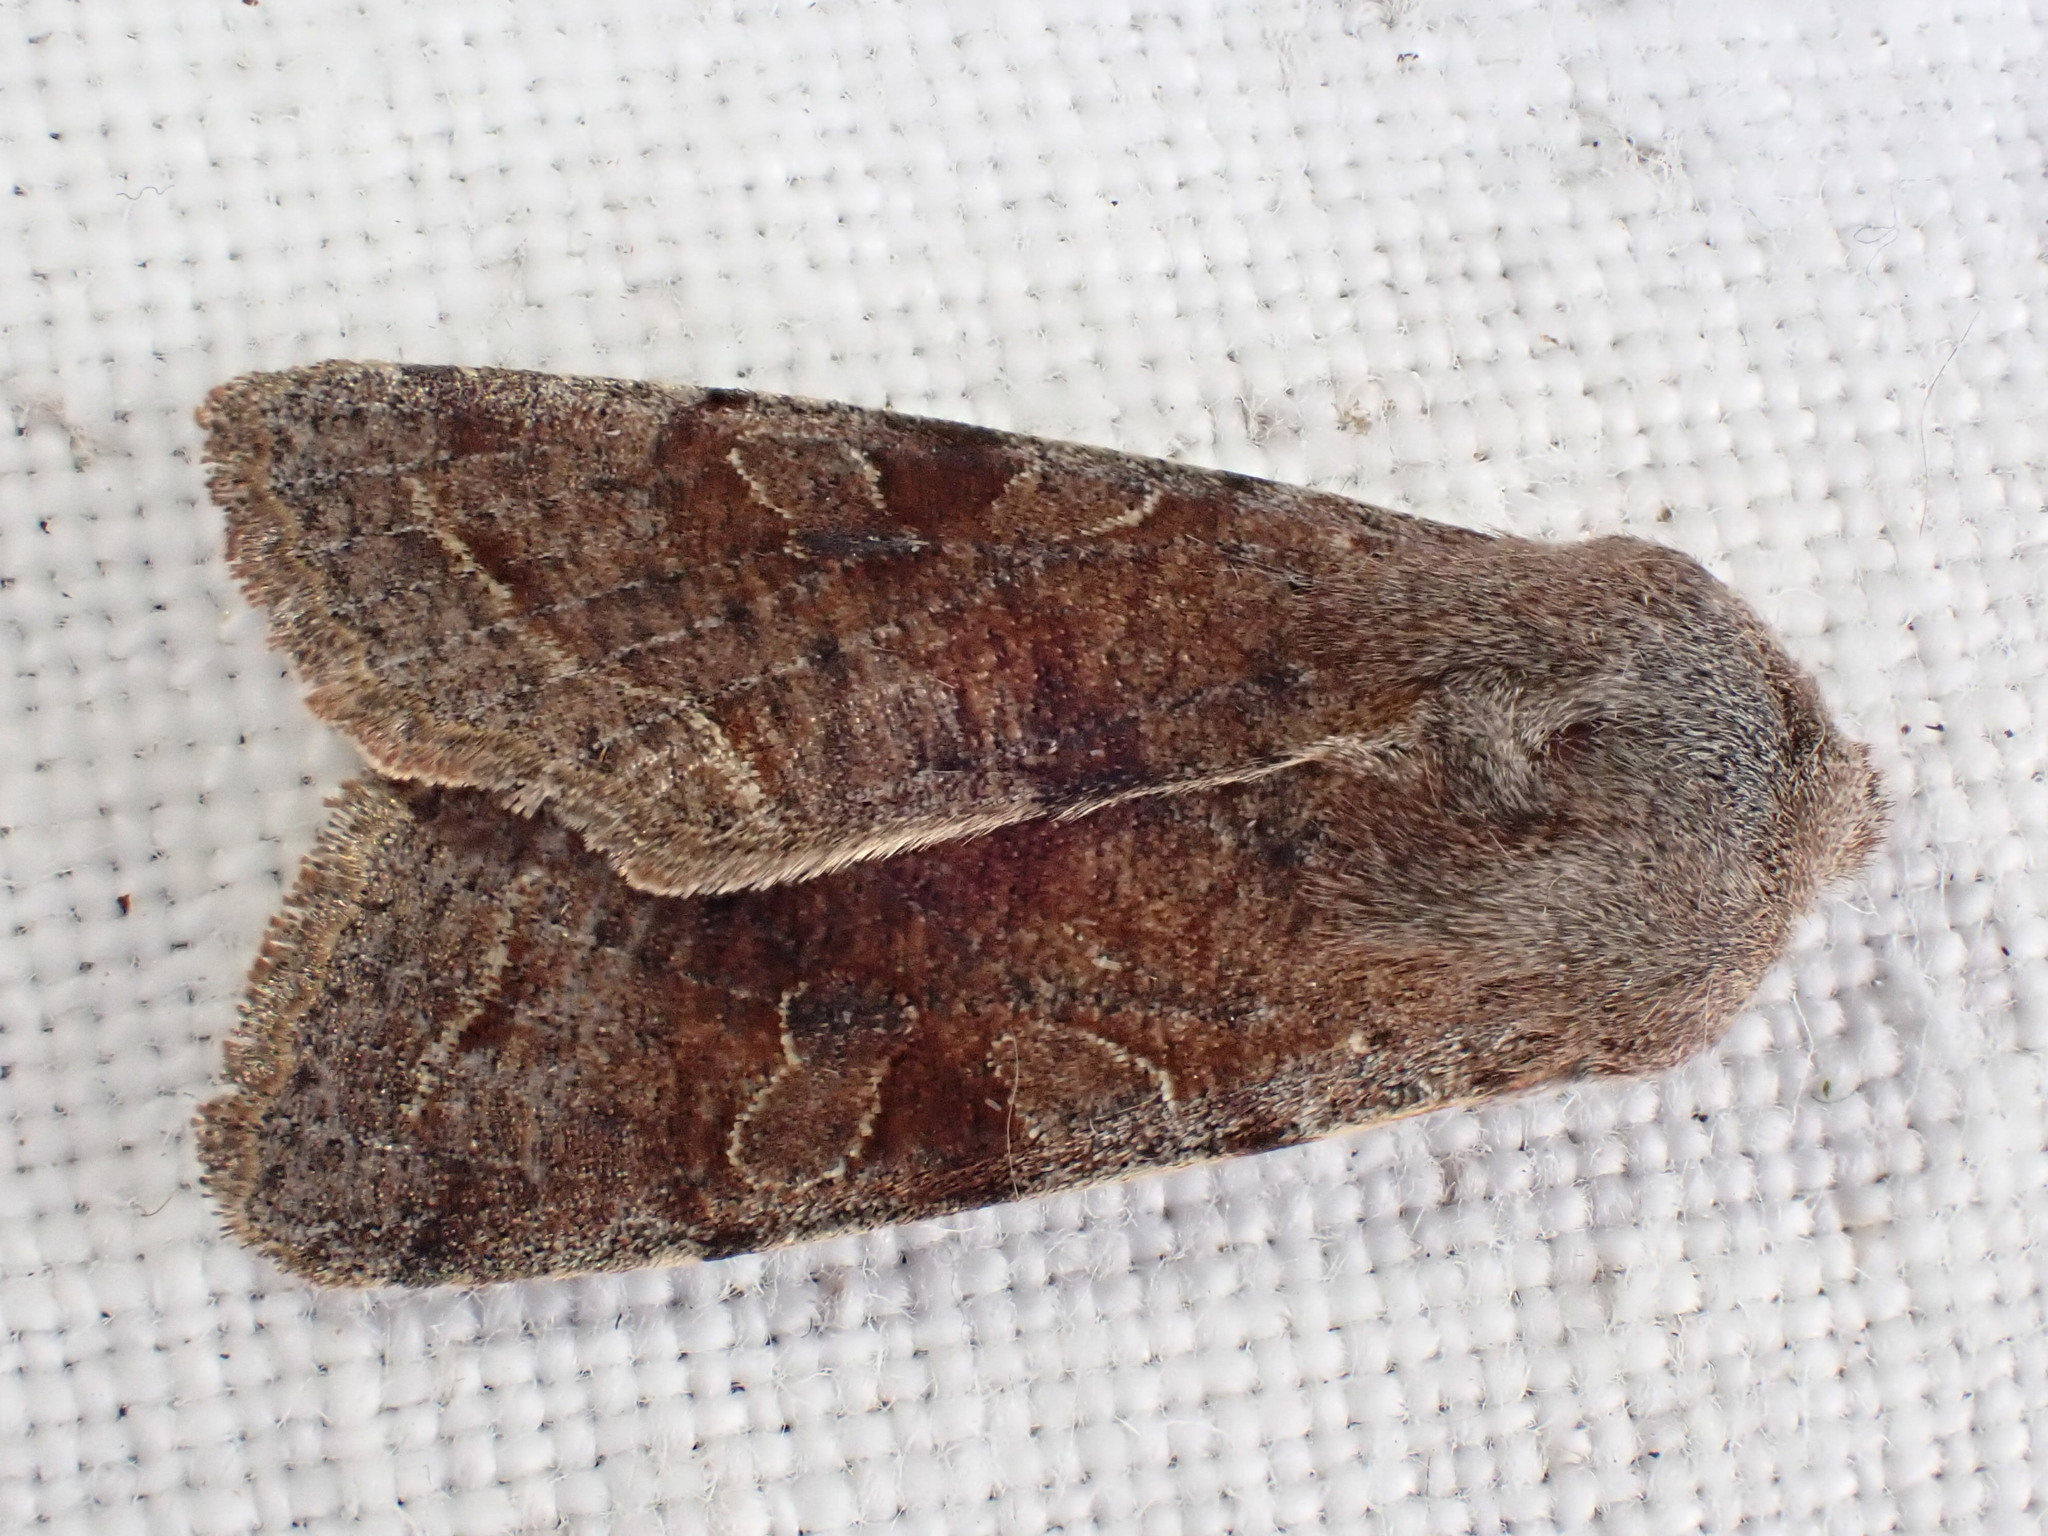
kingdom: Animalia
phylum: Arthropoda
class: Insecta
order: Lepidoptera
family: Noctuidae
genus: Orthosia
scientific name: Orthosia incerta
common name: Clouded drab
